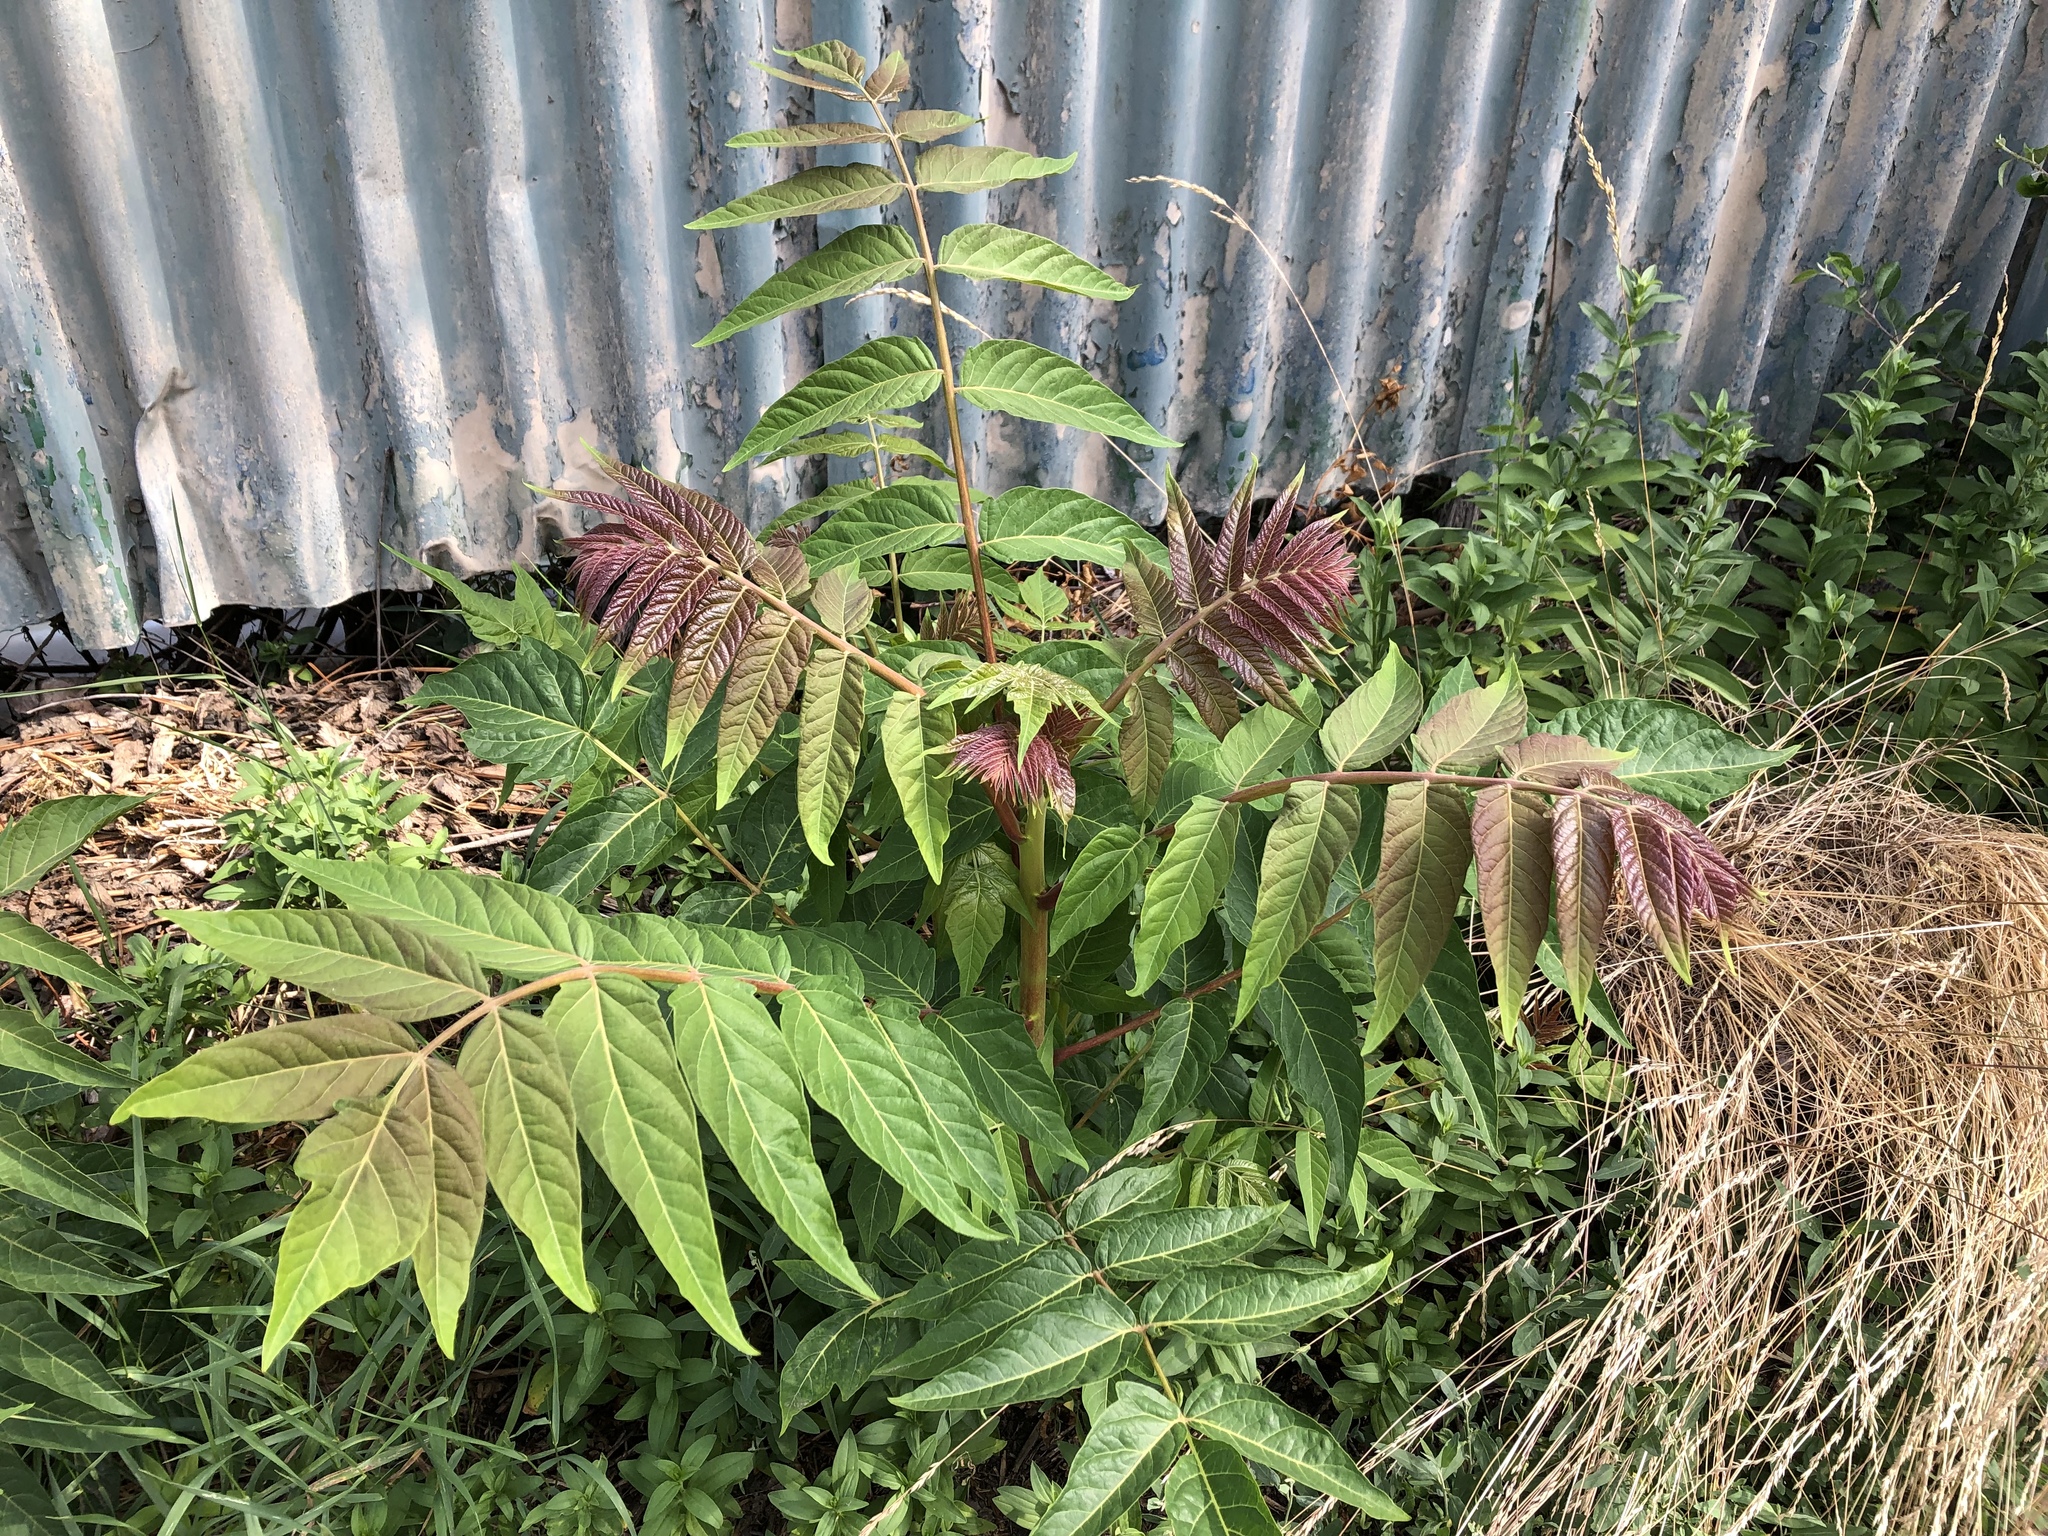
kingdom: Plantae
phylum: Tracheophyta
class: Magnoliopsida
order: Sapindales
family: Simaroubaceae
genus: Ailanthus
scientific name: Ailanthus altissima
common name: Tree-of-heaven
